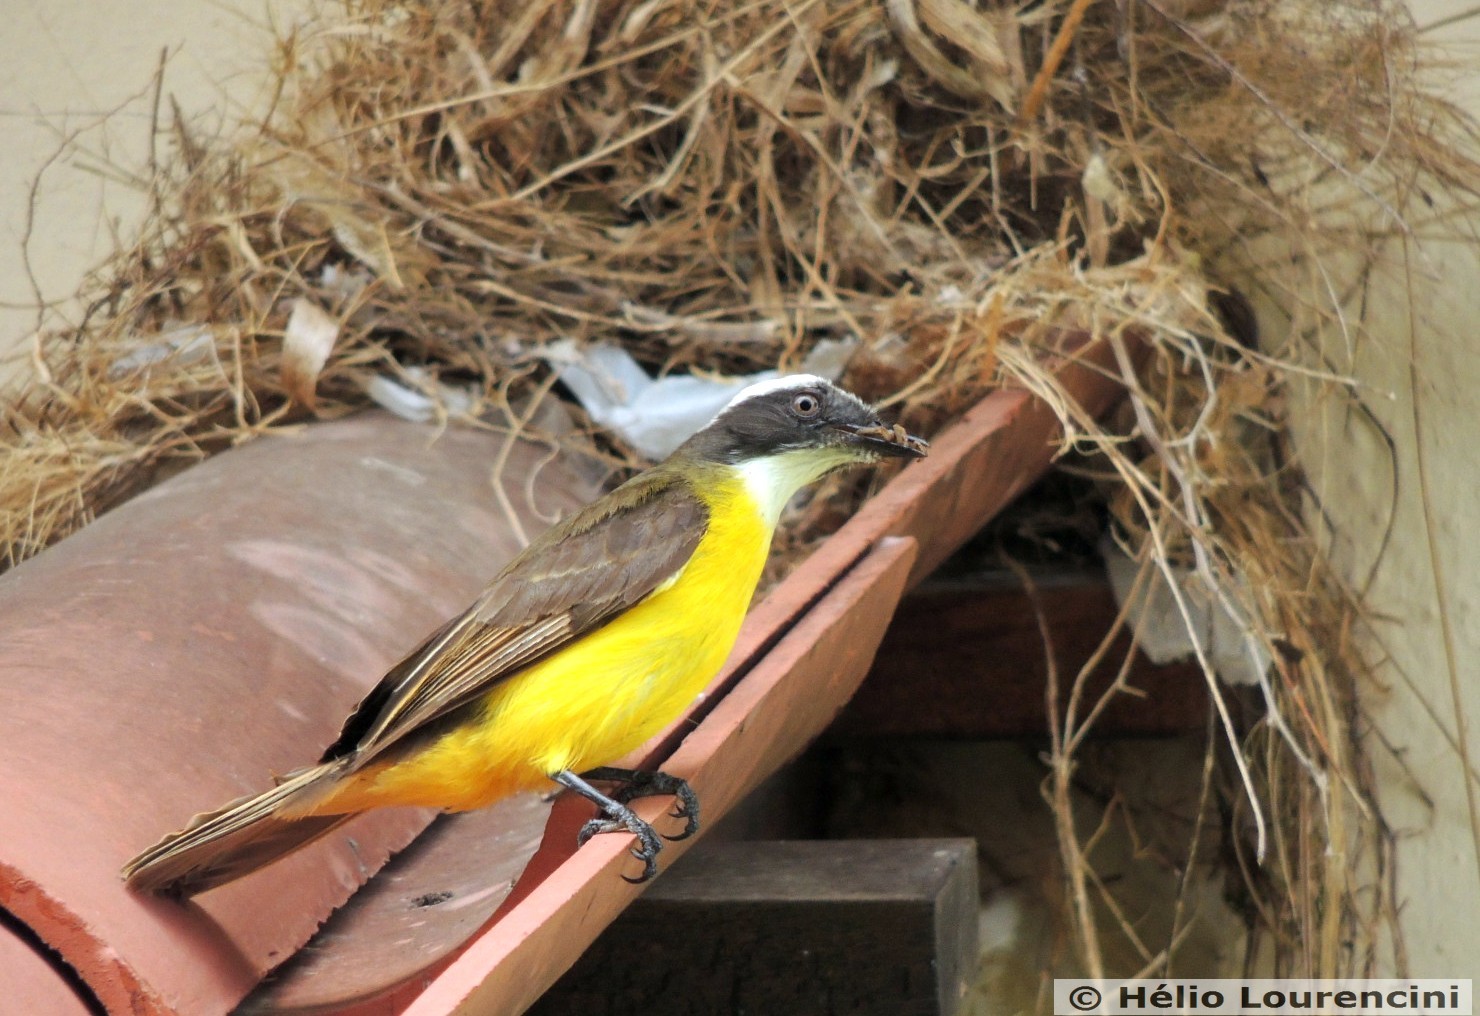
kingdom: Animalia
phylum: Chordata
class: Aves
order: Passeriformes
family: Tyrannidae
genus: Myiozetetes
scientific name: Myiozetetes similis
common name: Social flycatcher
